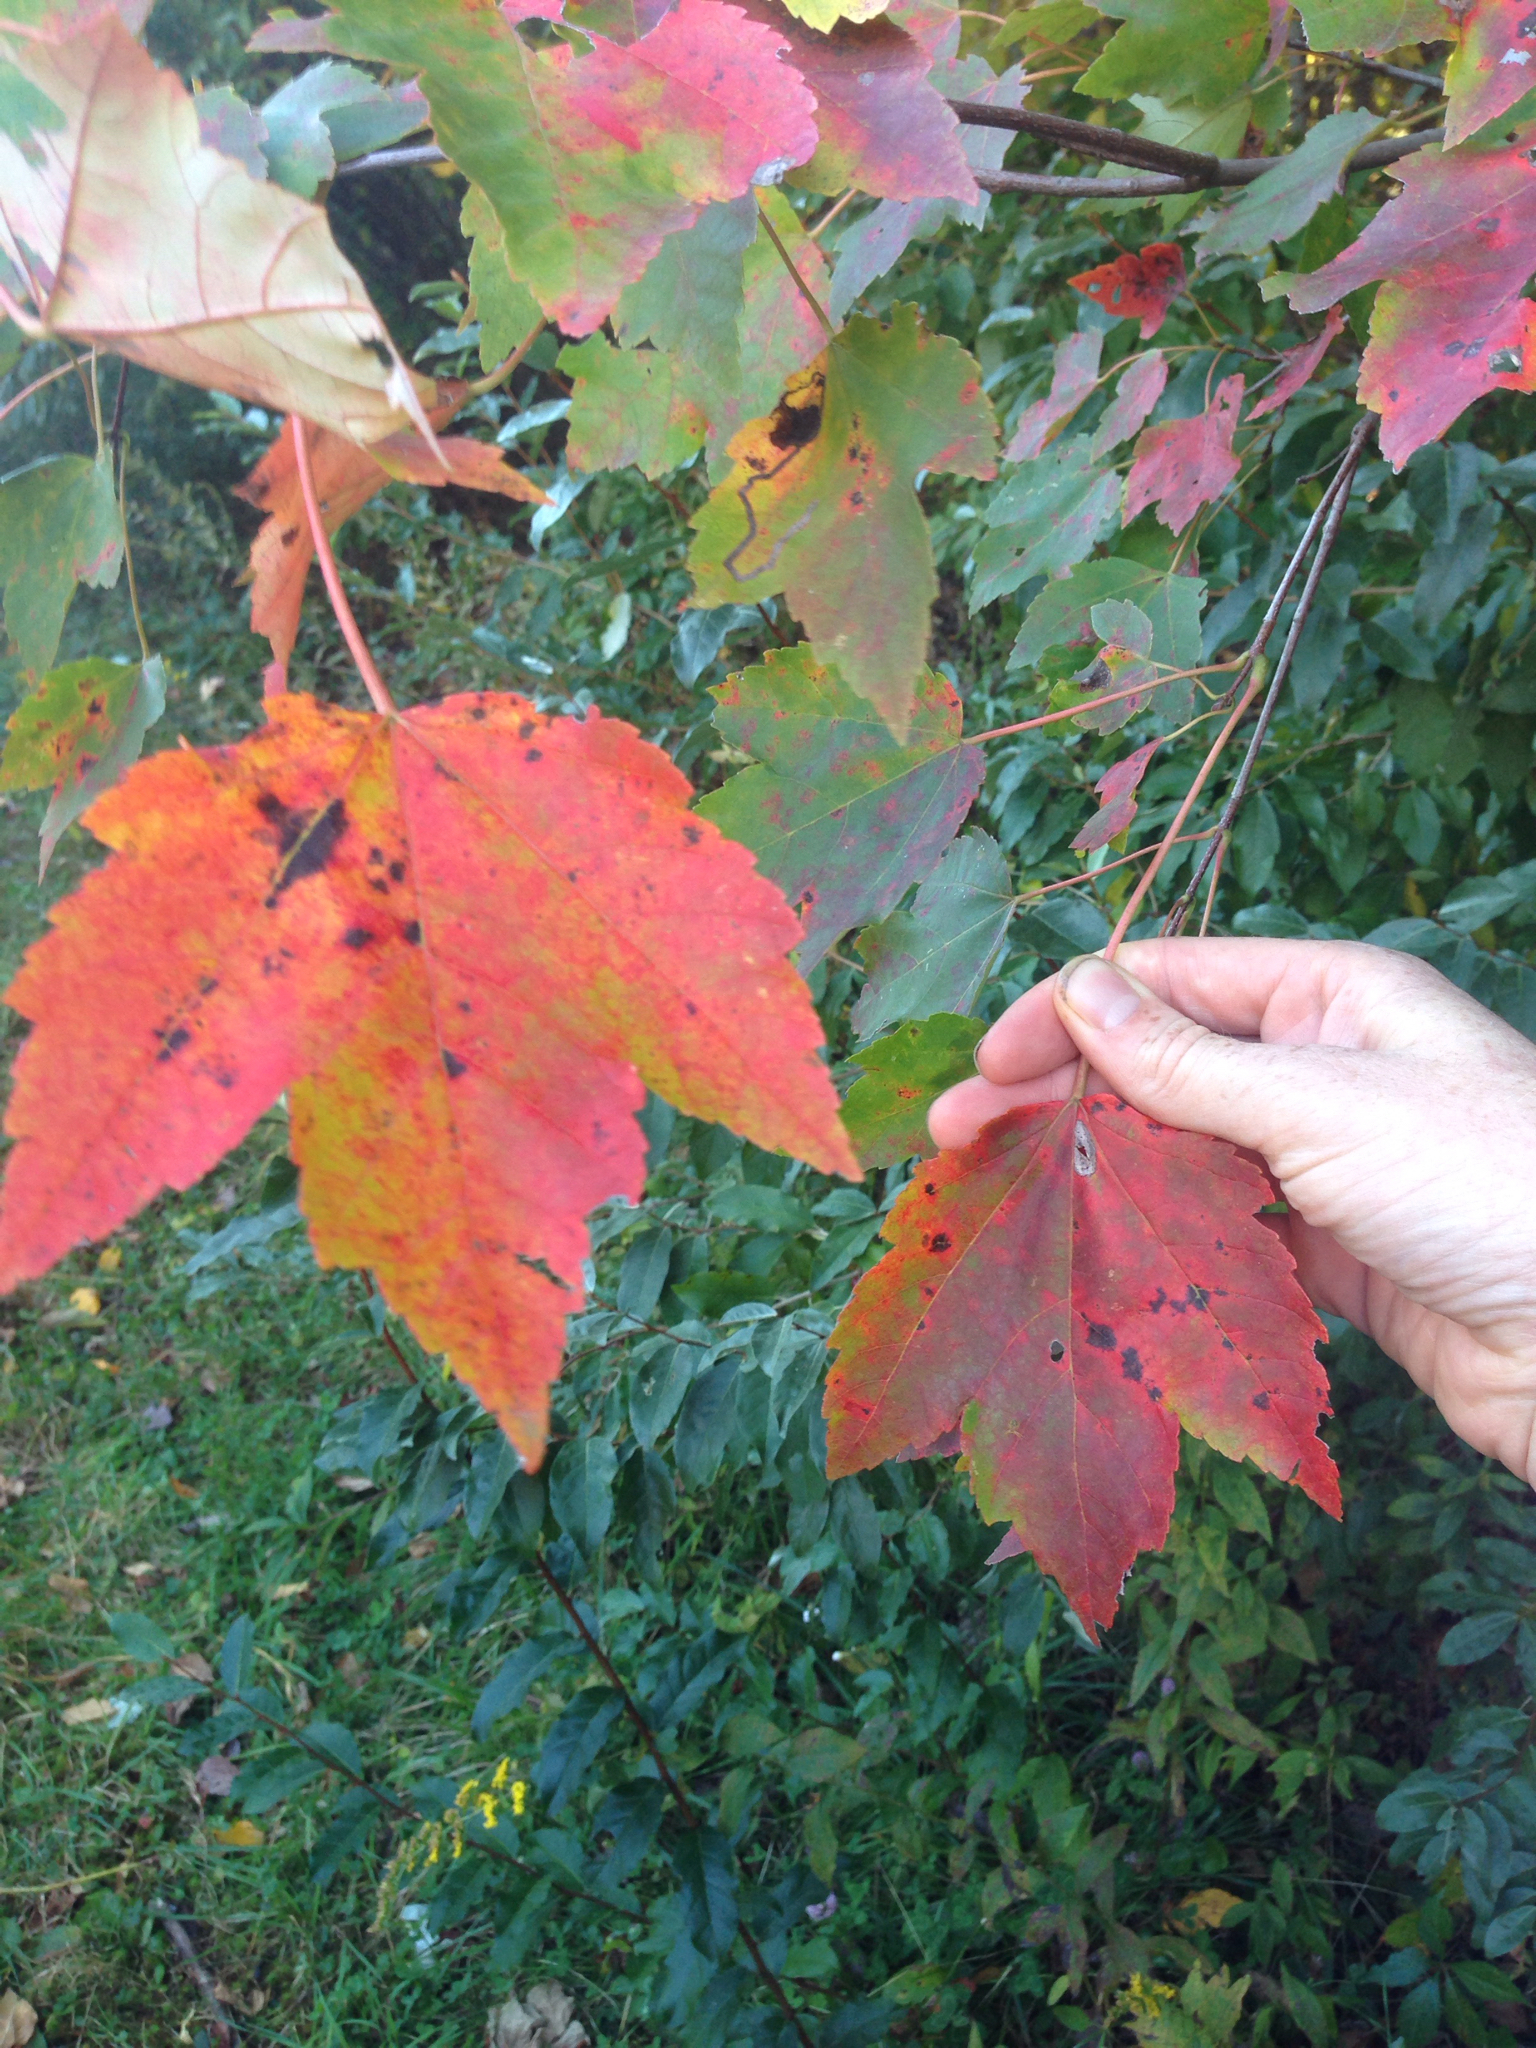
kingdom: Plantae
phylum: Tracheophyta
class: Magnoliopsida
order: Sapindales
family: Sapindaceae
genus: Acer
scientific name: Acer rubrum
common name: Red maple
